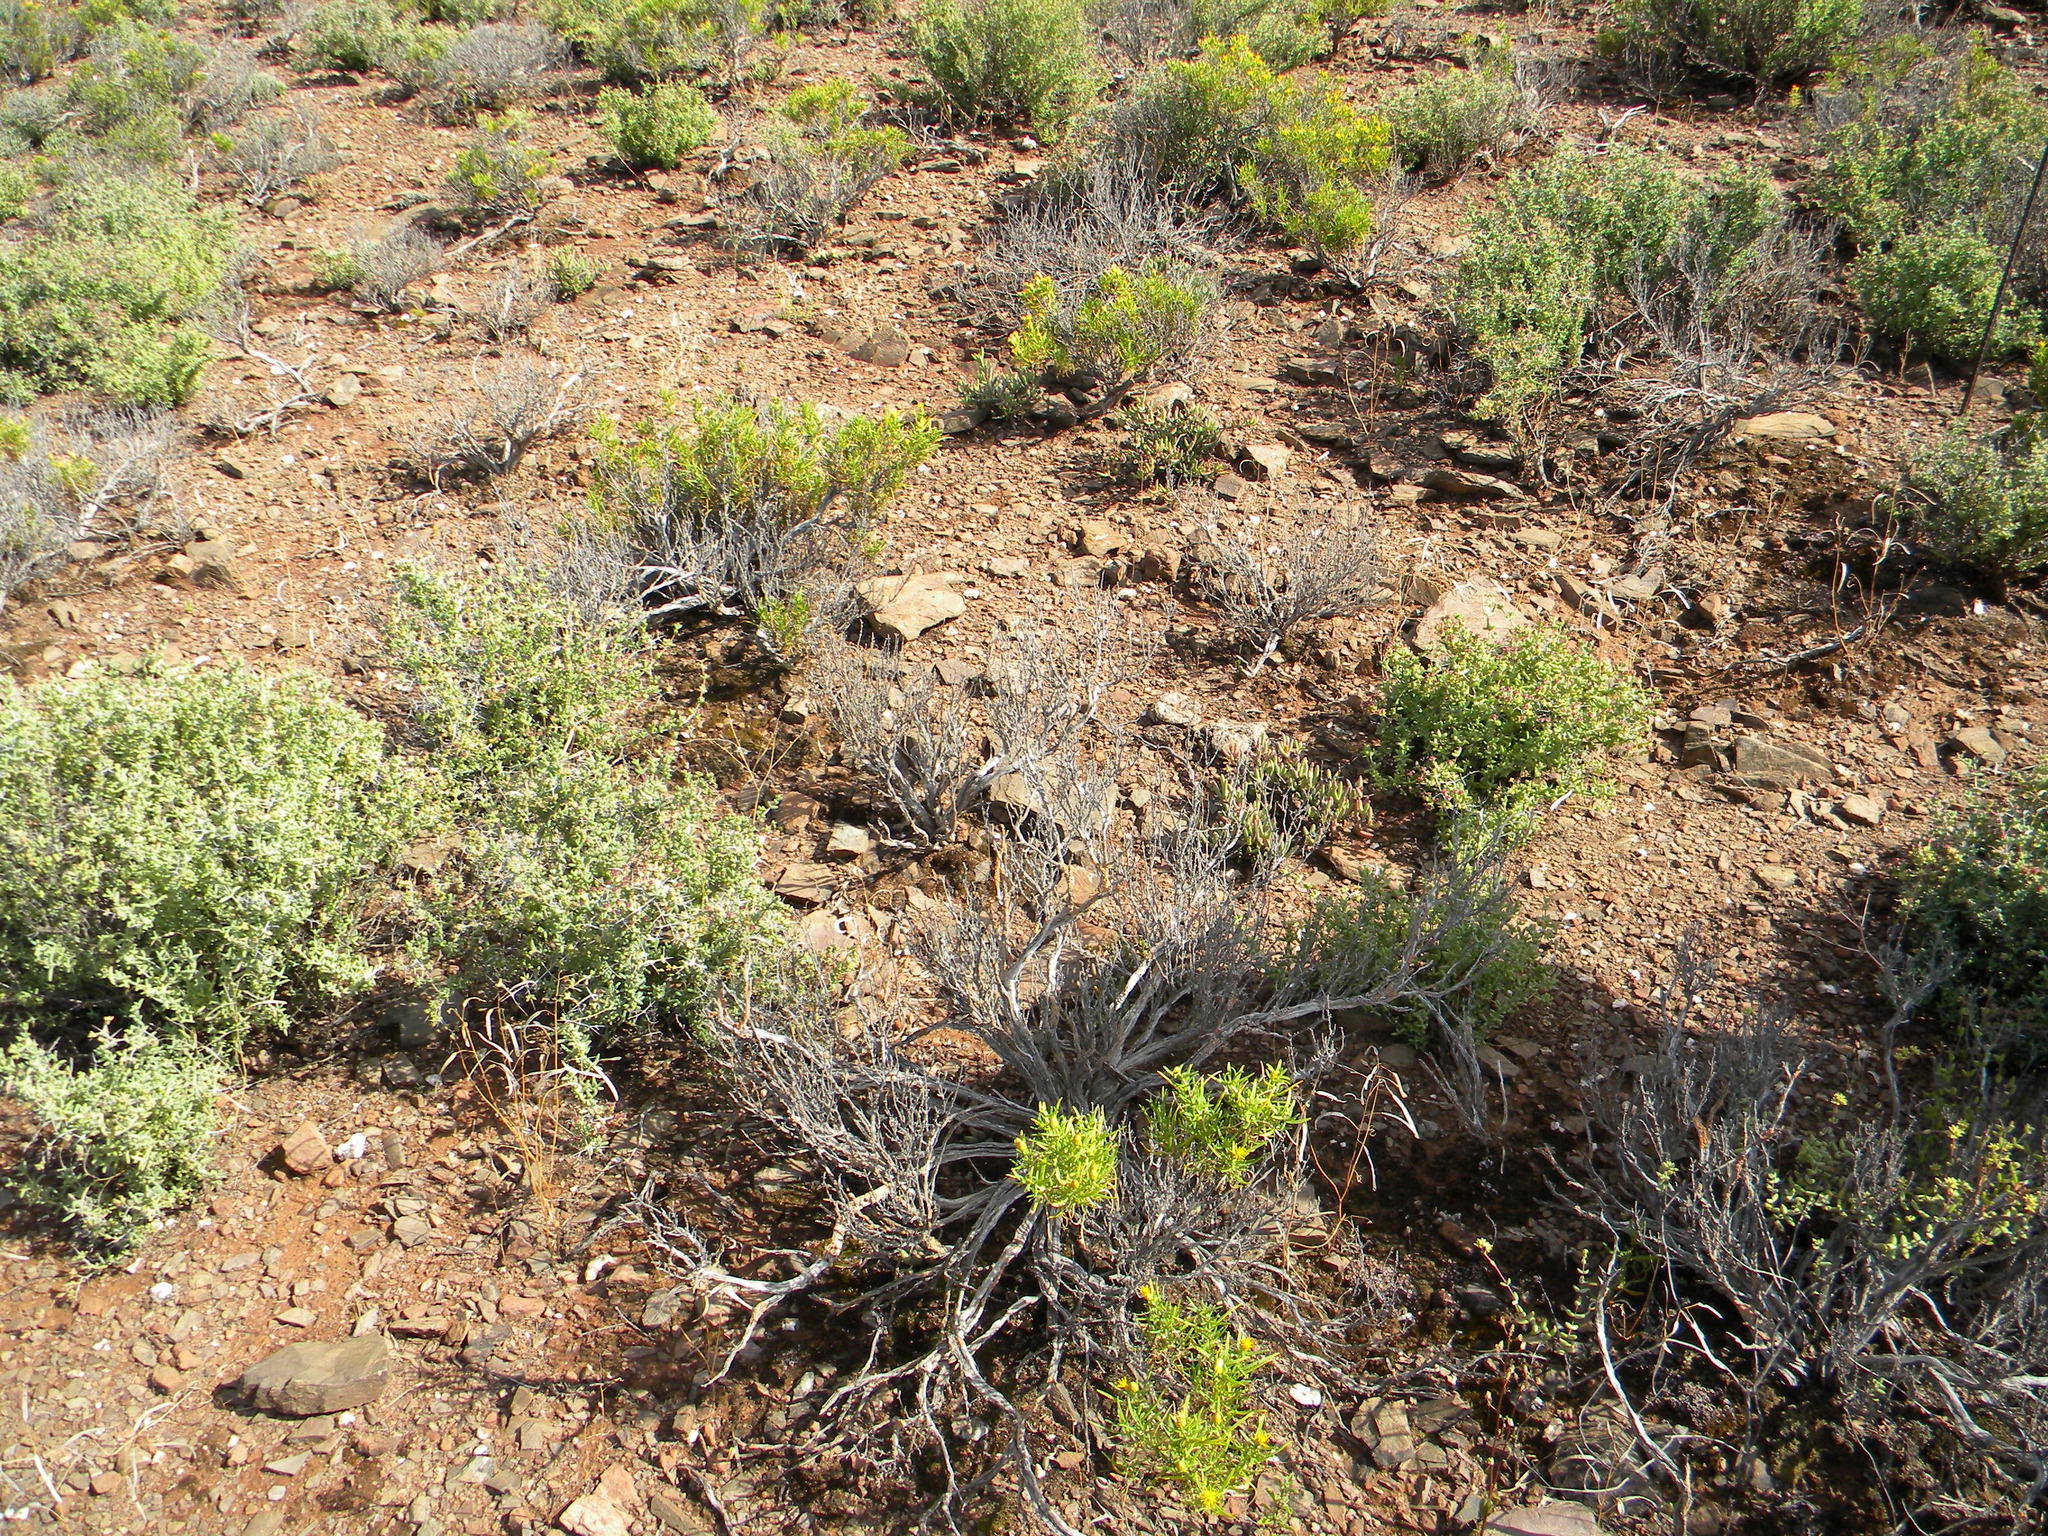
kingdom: Plantae
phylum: Tracheophyta
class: Magnoliopsida
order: Asterales
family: Asteraceae
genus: Pteronia
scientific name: Pteronia pallens
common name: Scholtzbush
